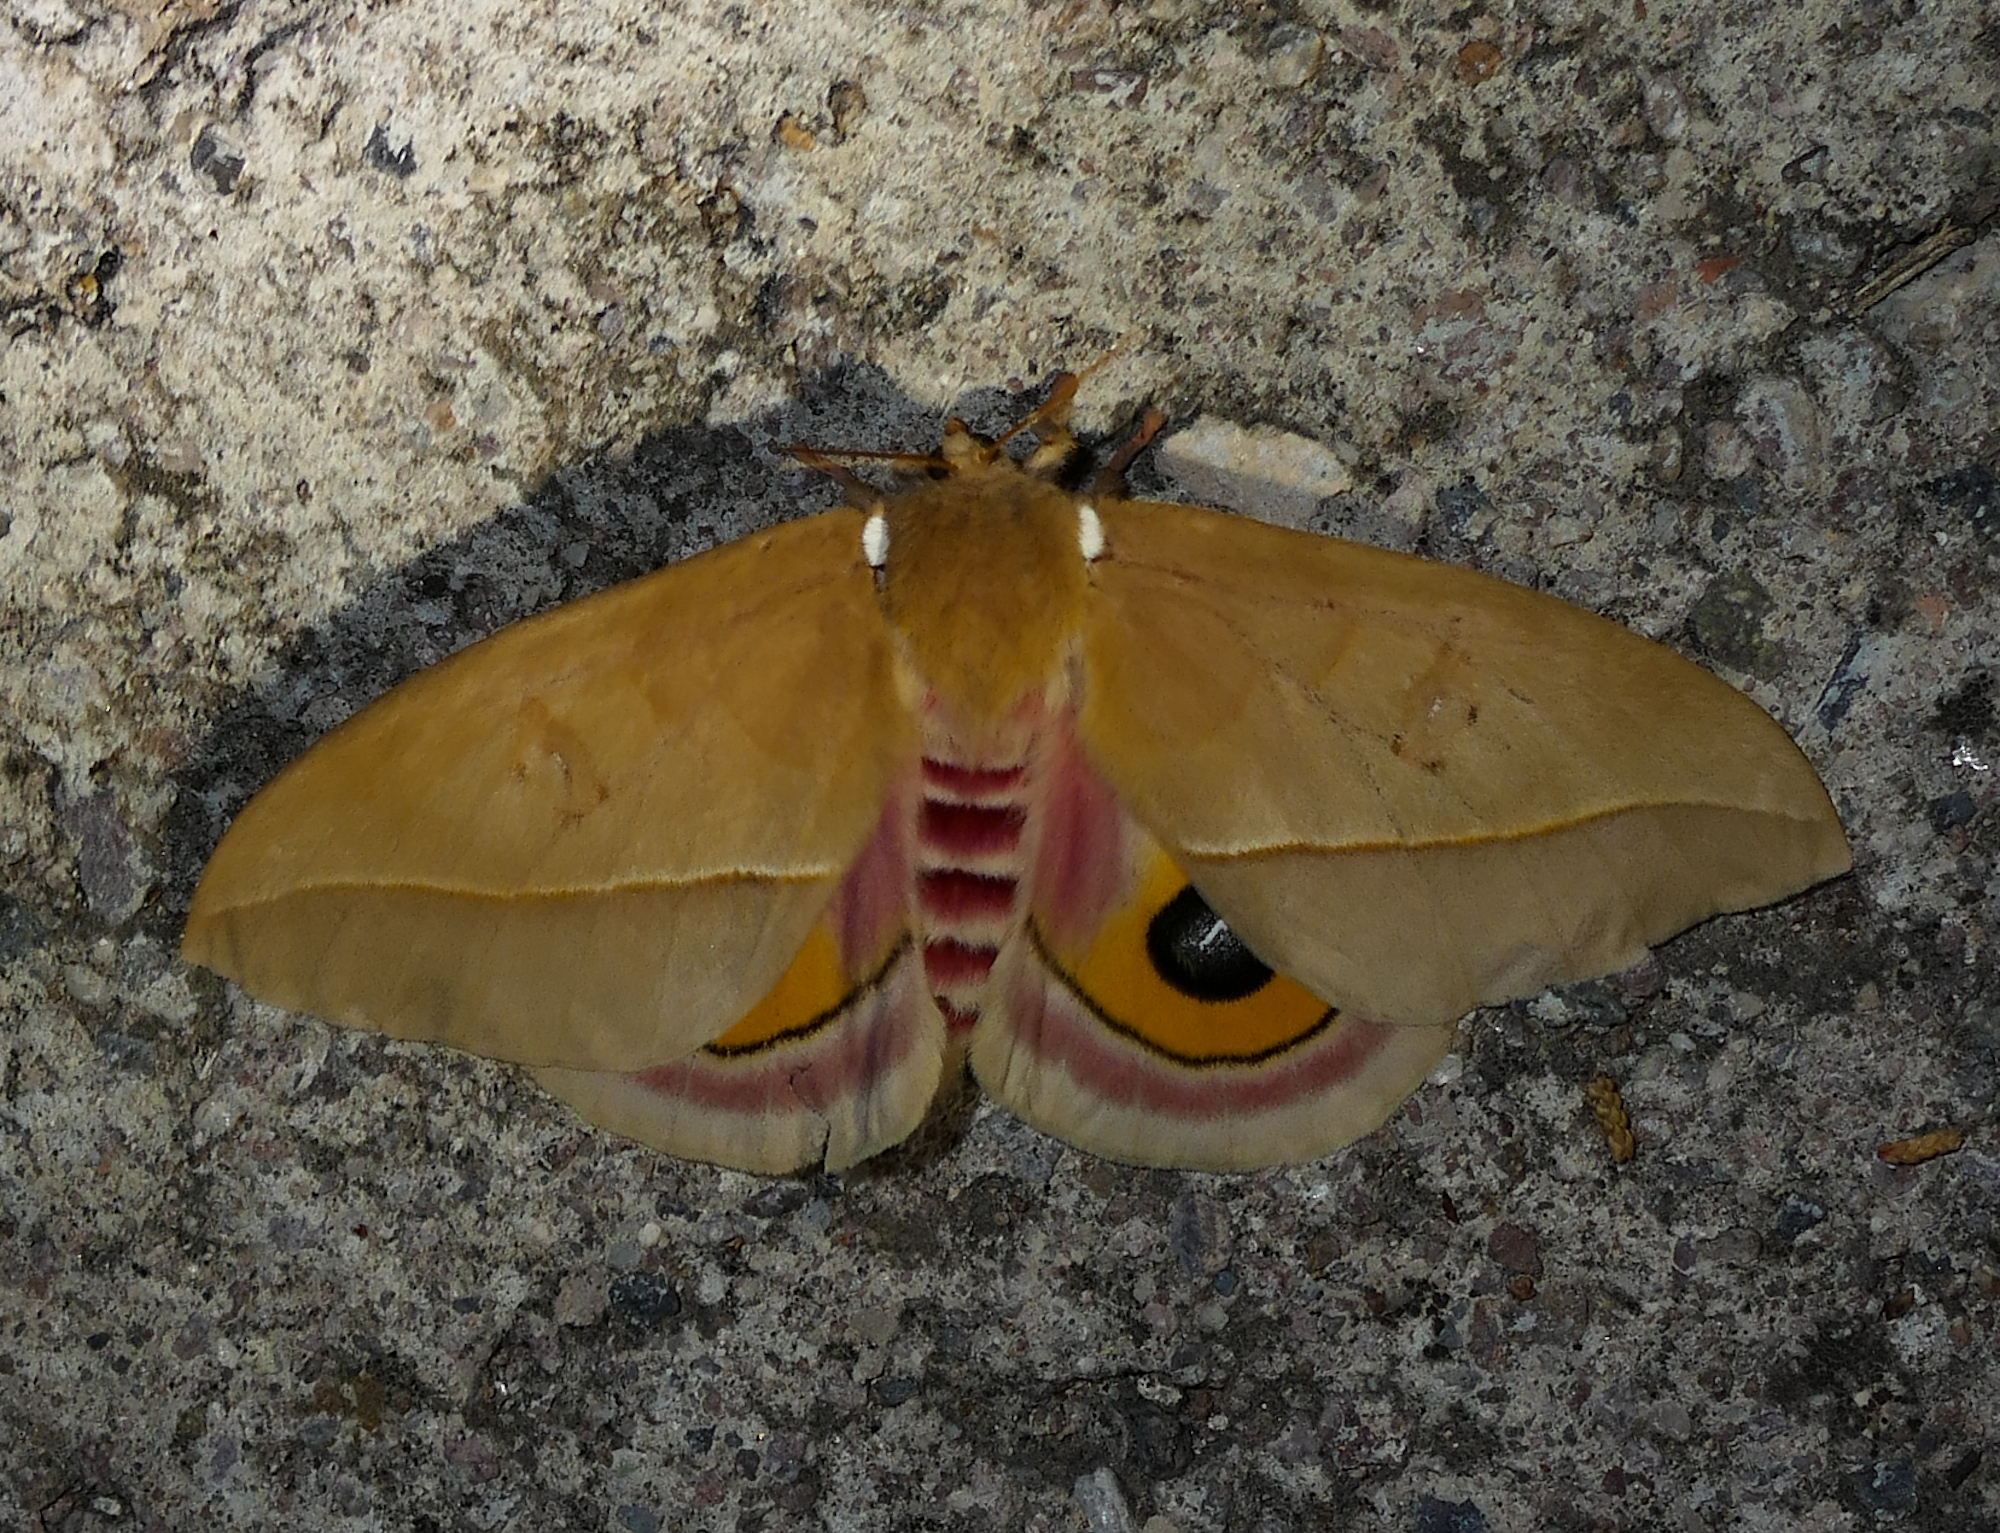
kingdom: Animalia
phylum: Arthropoda
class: Insecta
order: Lepidoptera
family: Saturniidae
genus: Automeris
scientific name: Automeris cecrops
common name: Cecrops eyed silkmoth
